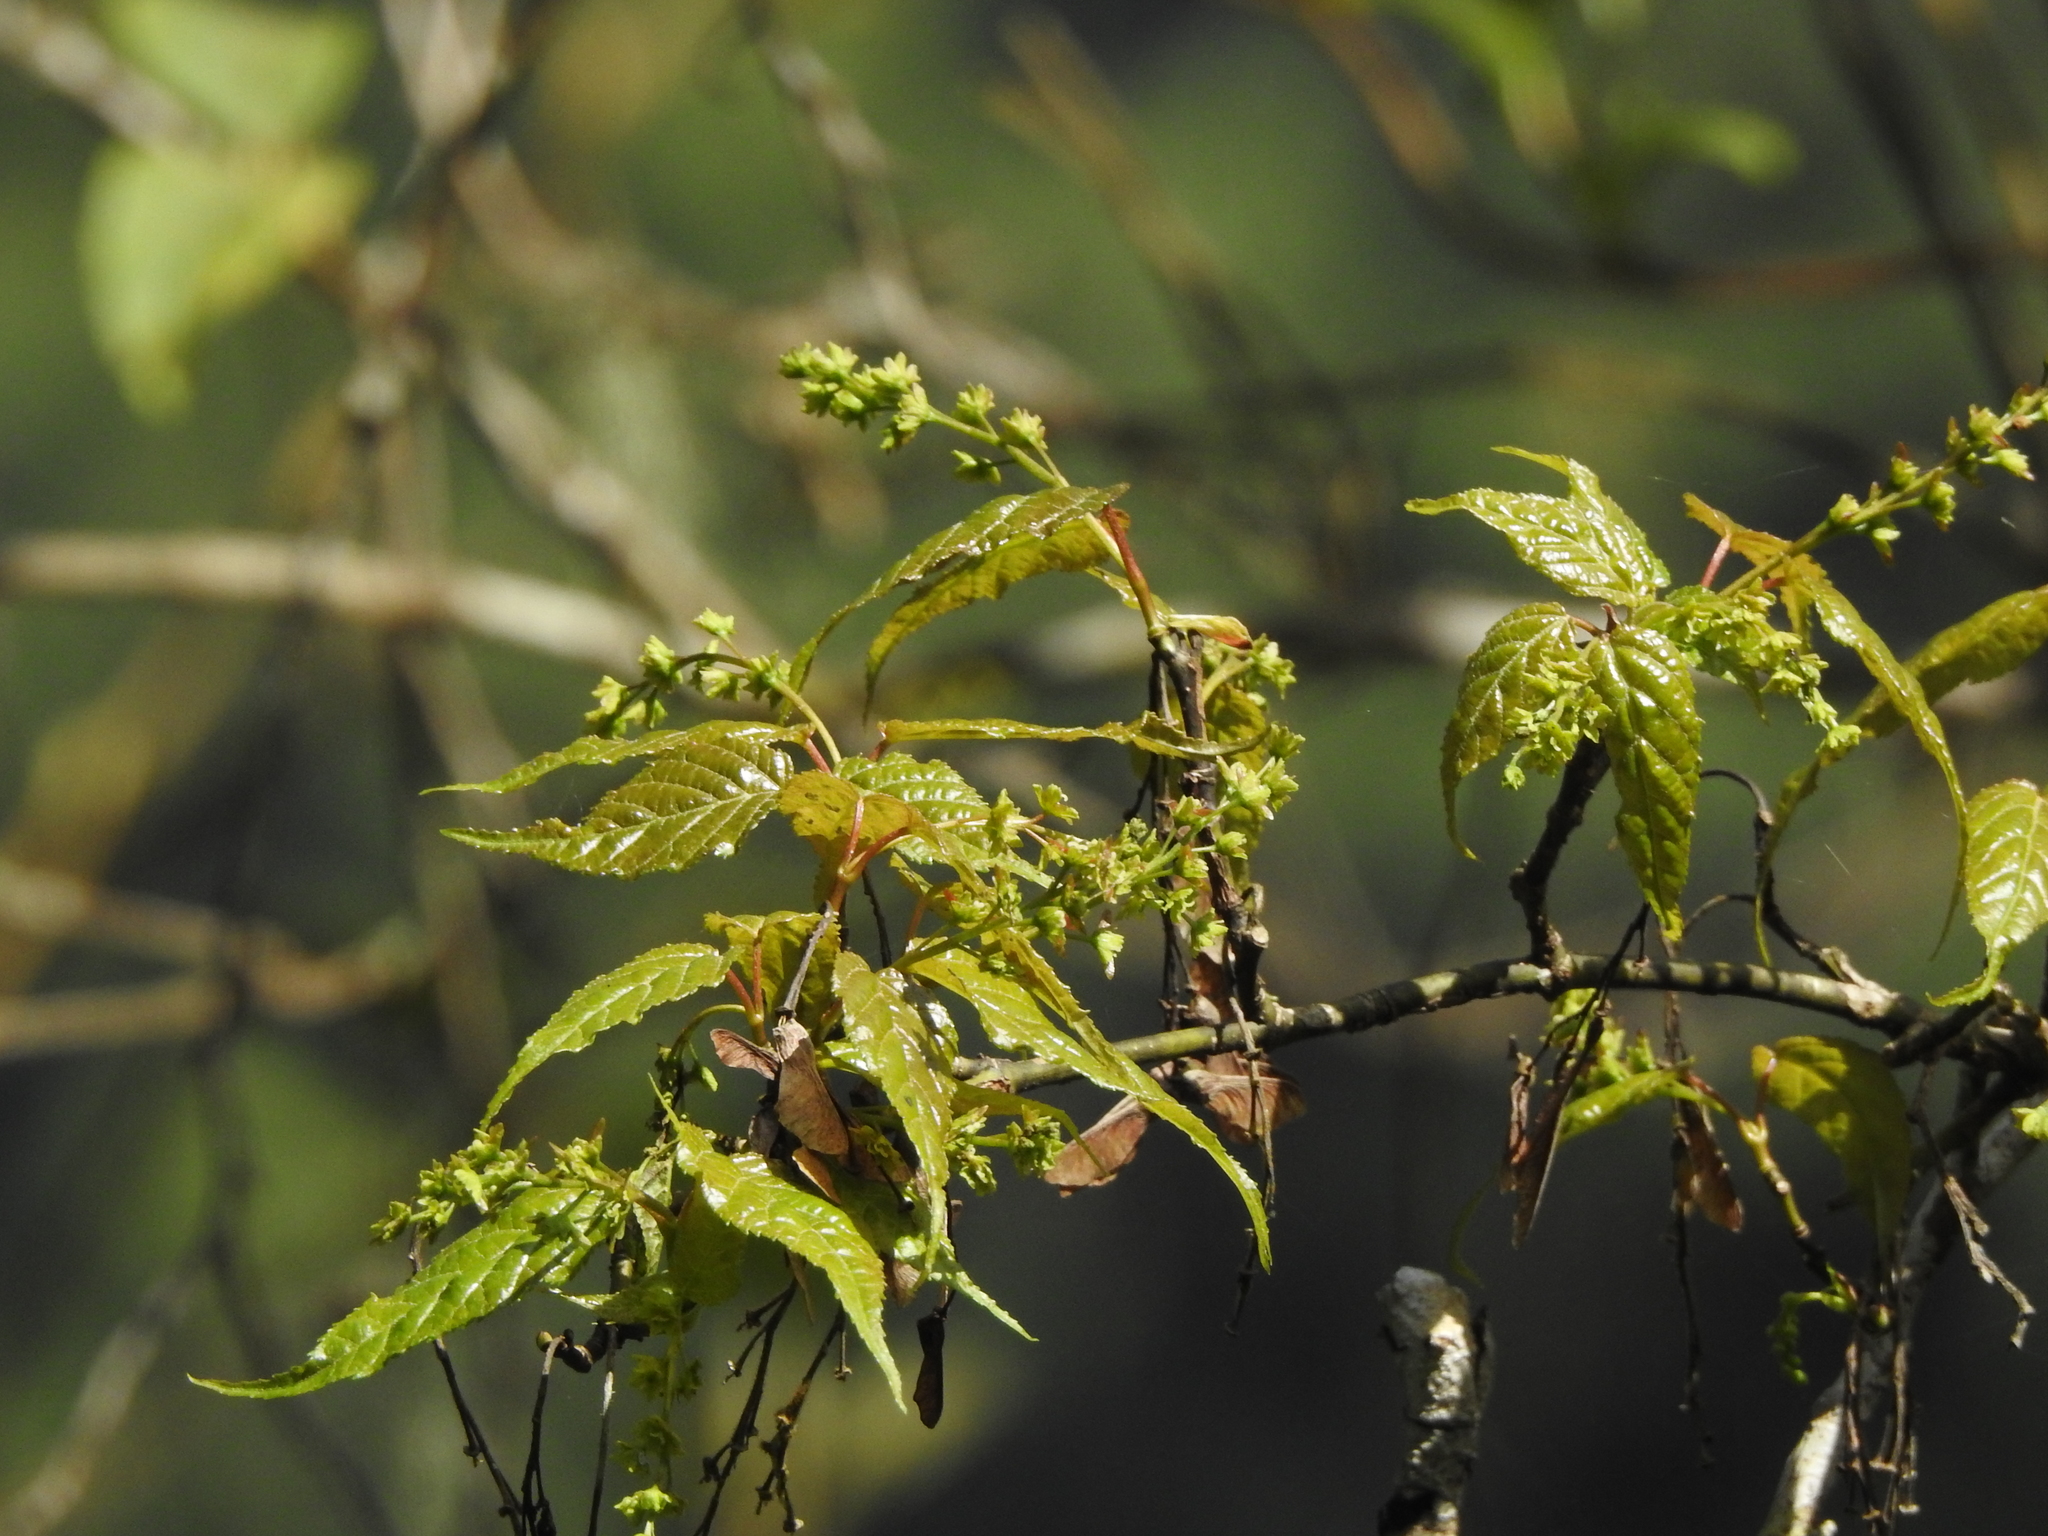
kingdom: Plantae
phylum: Tracheophyta
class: Magnoliopsida
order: Sapindales
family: Sapindaceae
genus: Acer
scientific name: Acer caudatifolium
